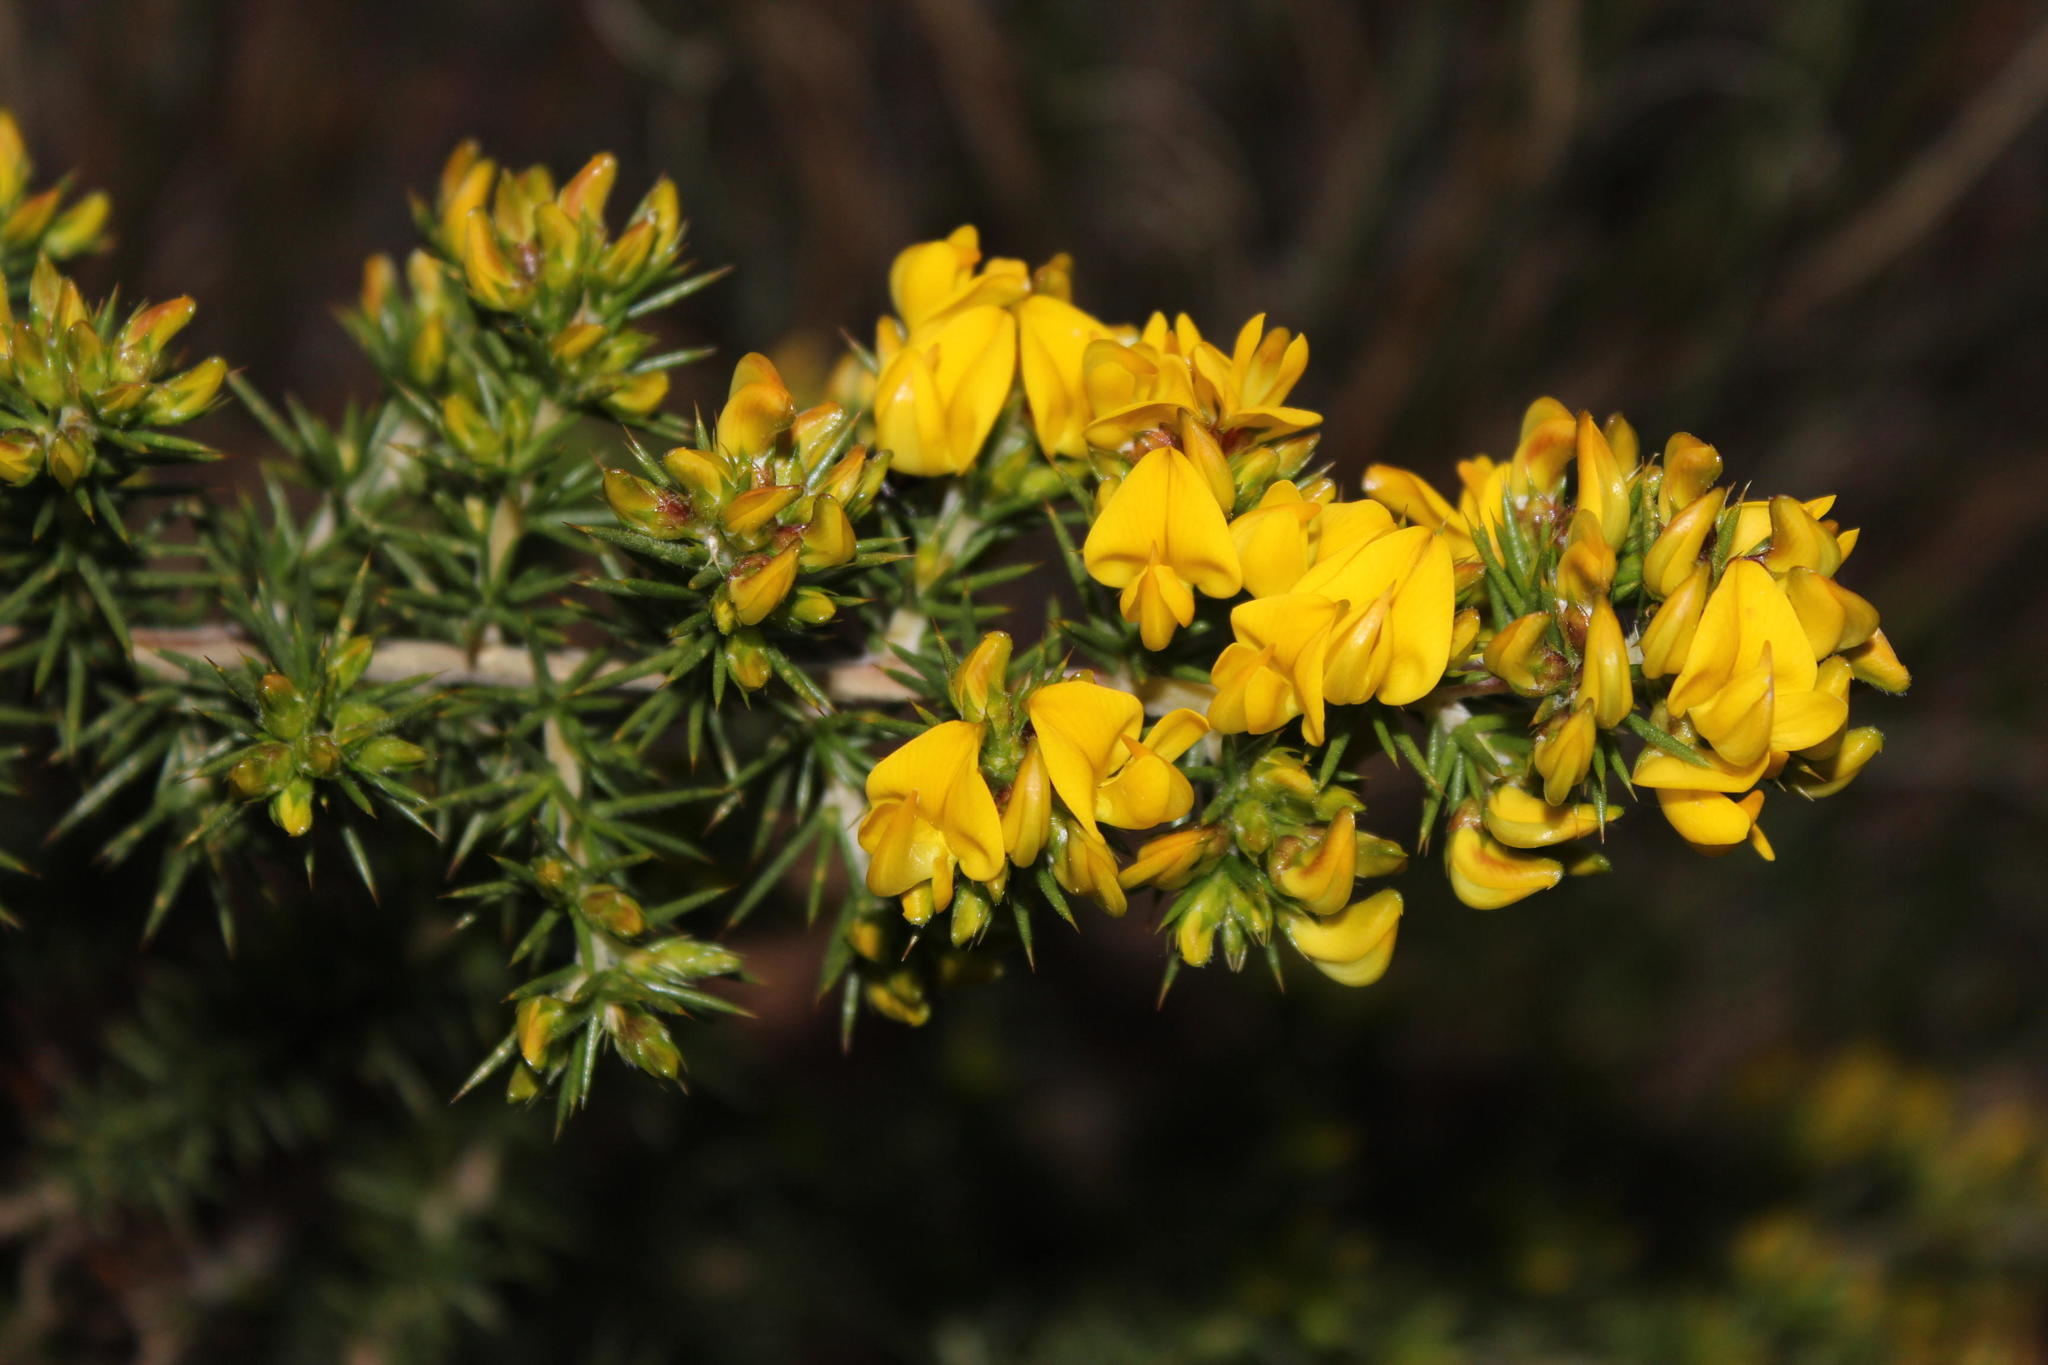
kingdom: Plantae
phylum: Tracheophyta
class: Magnoliopsida
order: Fabales
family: Fabaceae
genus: Aspalathus
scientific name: Aspalathus astroites
